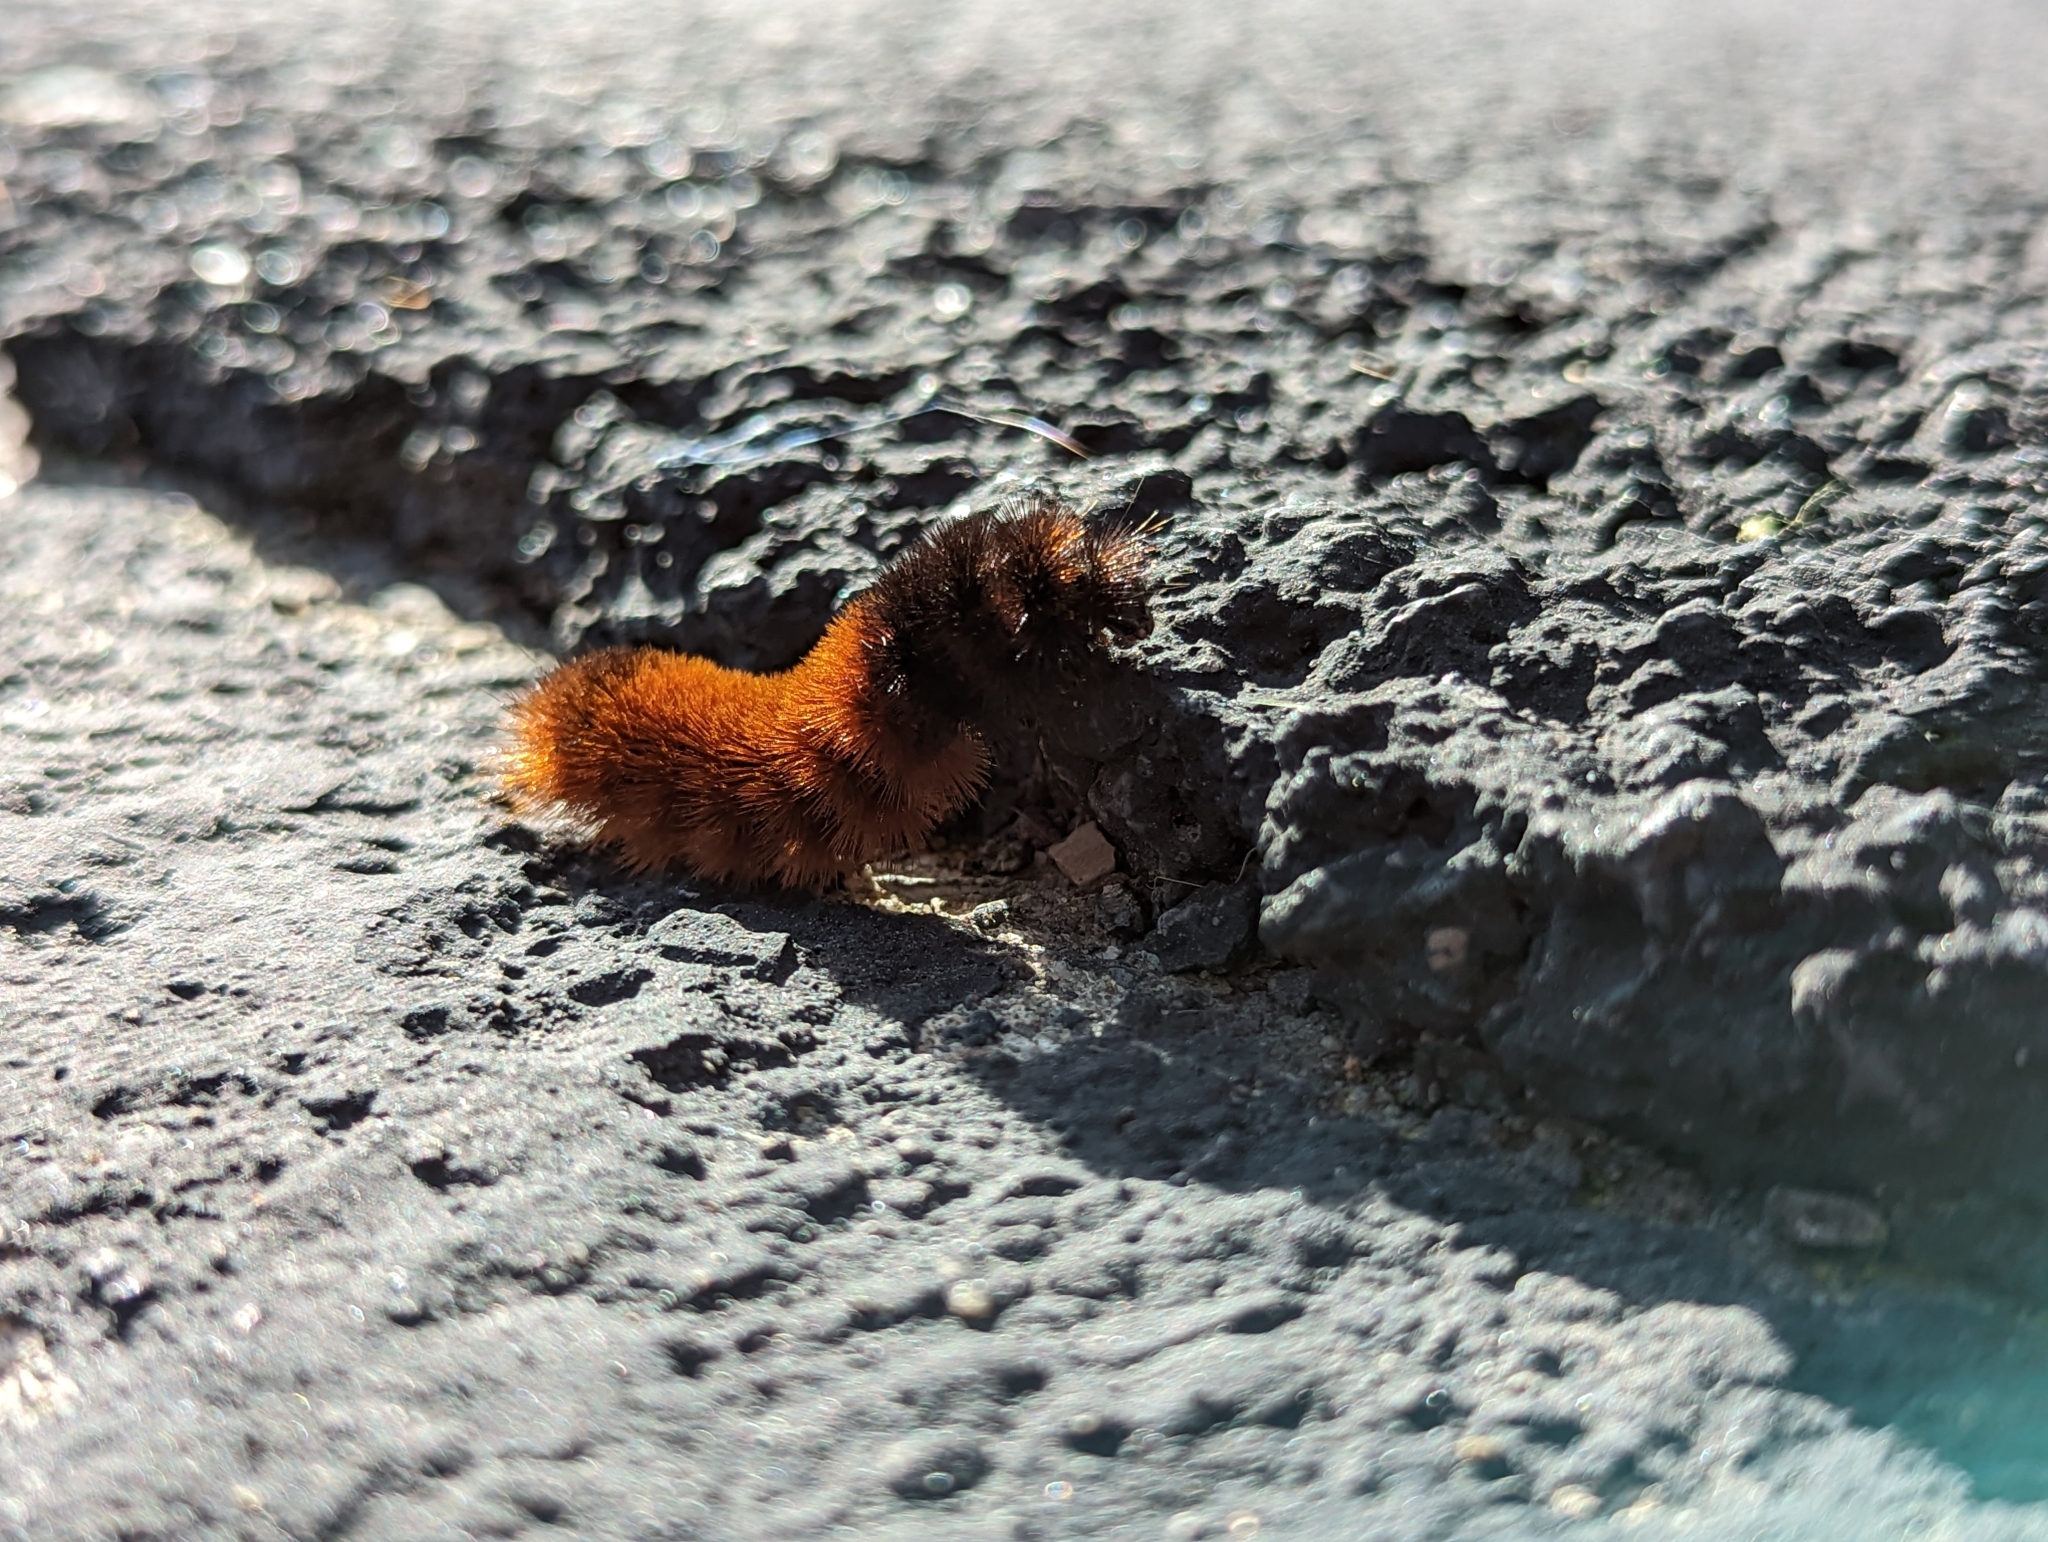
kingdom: Animalia
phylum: Arthropoda
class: Insecta
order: Lepidoptera
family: Erebidae
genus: Pyrrharctia
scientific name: Pyrrharctia isabella
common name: Isabella tiger moth
